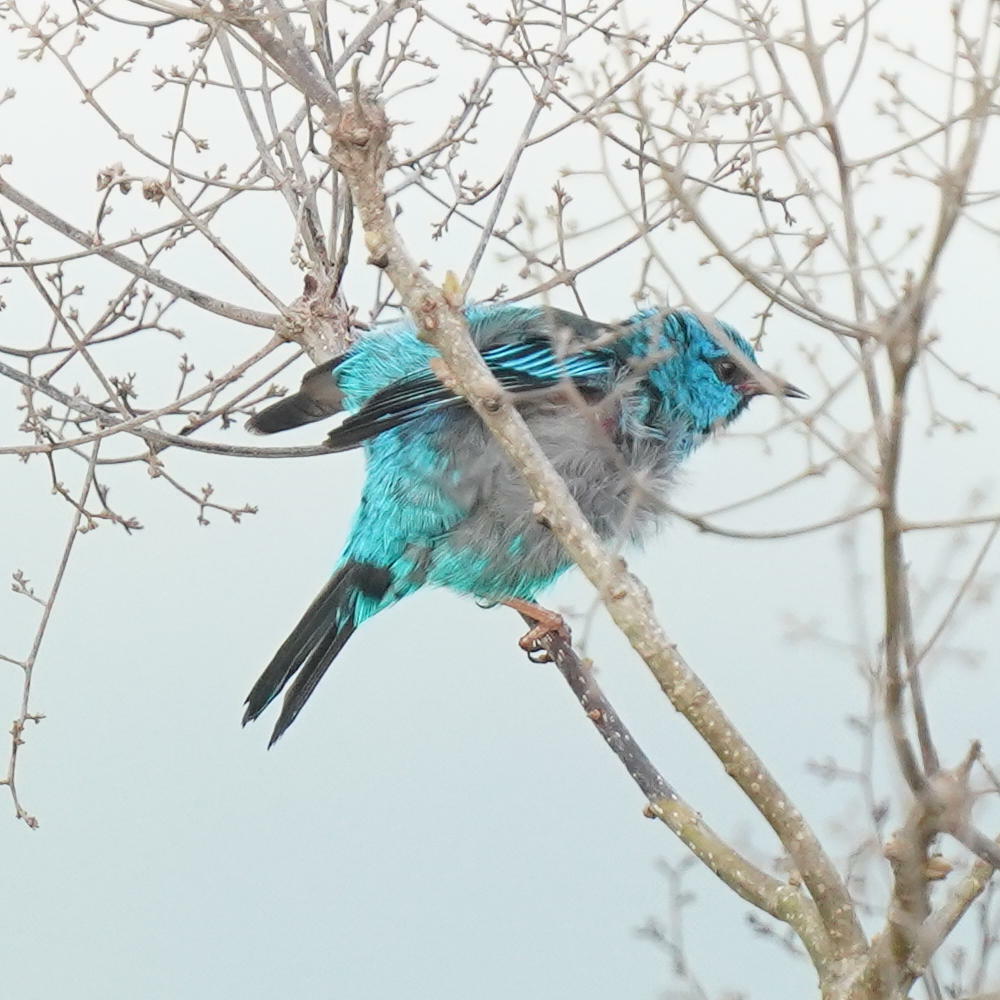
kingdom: Animalia
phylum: Chordata
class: Aves
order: Passeriformes
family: Thraupidae
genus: Dacnis
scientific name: Dacnis cayana
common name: Blue dacnis
